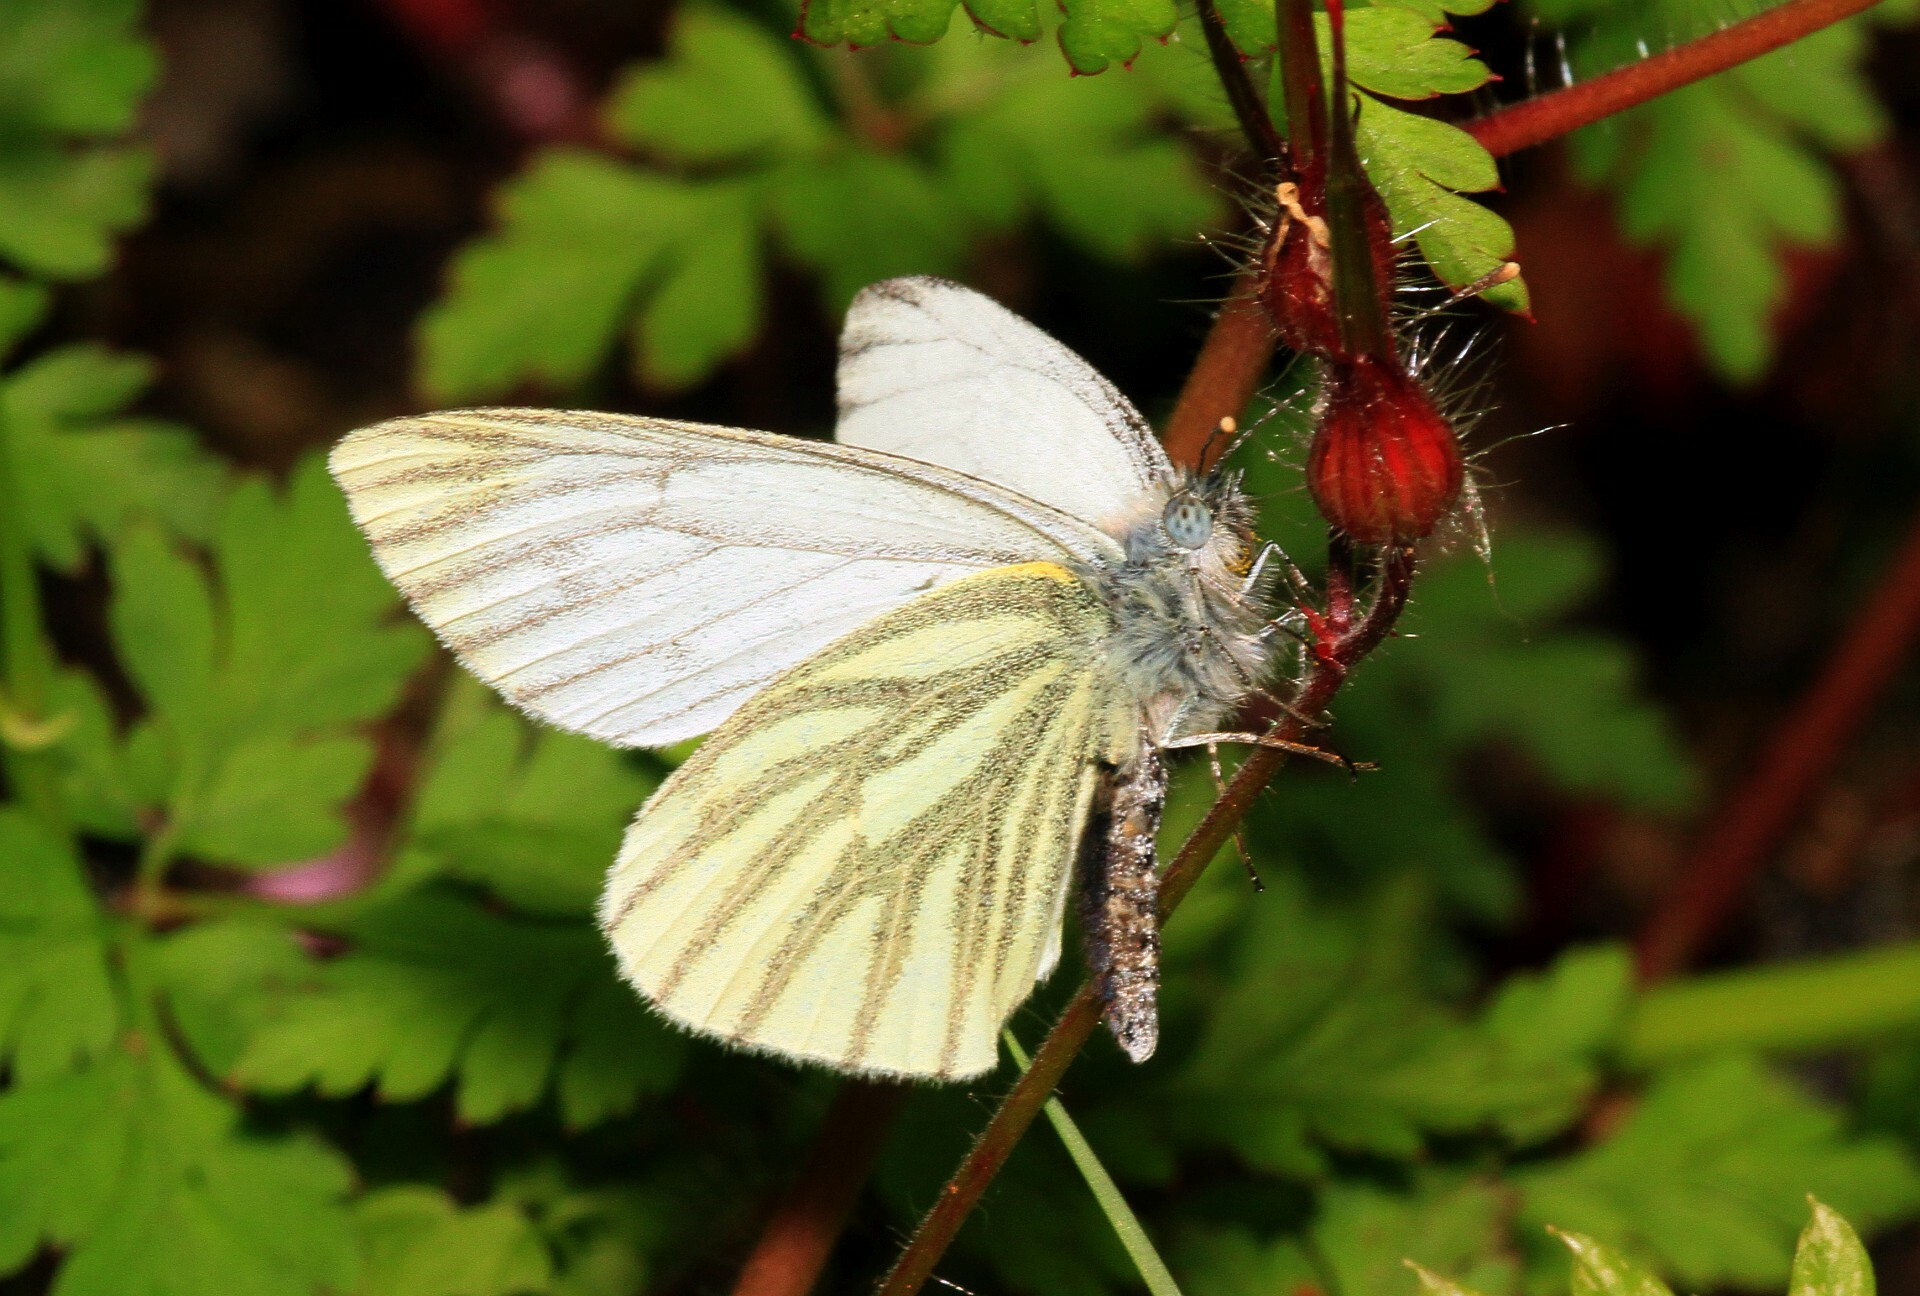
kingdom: Animalia
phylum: Arthropoda
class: Insecta
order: Lepidoptera
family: Pieridae
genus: Pieris
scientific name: Pieris napi
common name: Green-veined white
